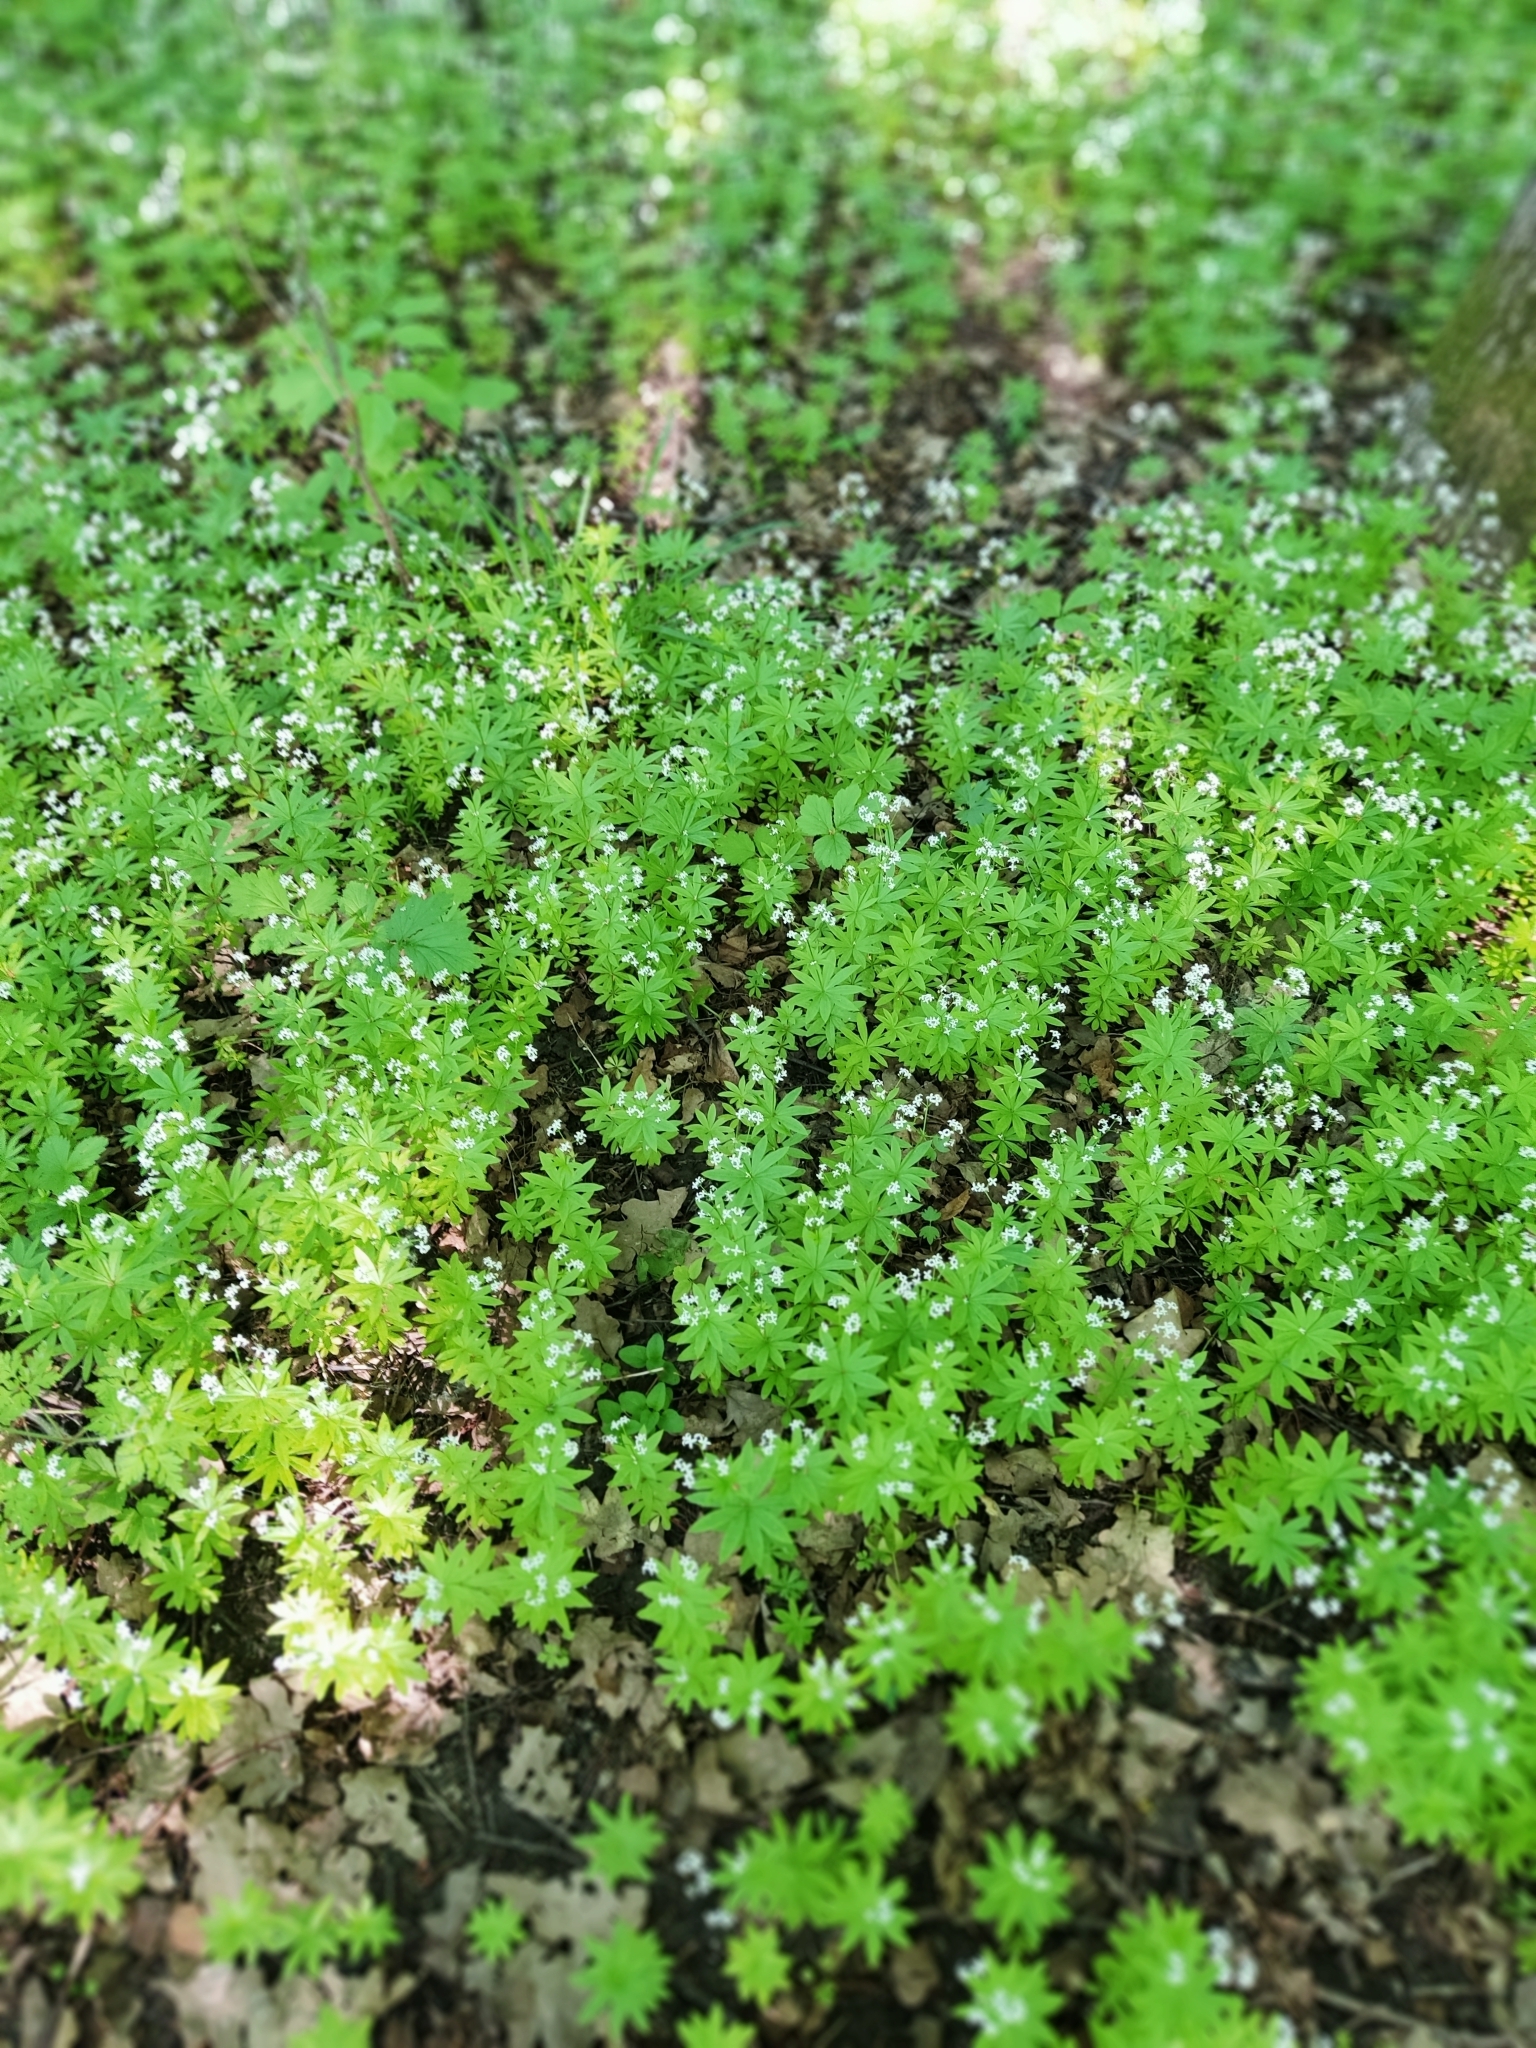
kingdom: Plantae
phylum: Tracheophyta
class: Magnoliopsida
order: Gentianales
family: Rubiaceae
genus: Galium
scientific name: Galium odoratum
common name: Sweet woodruff
